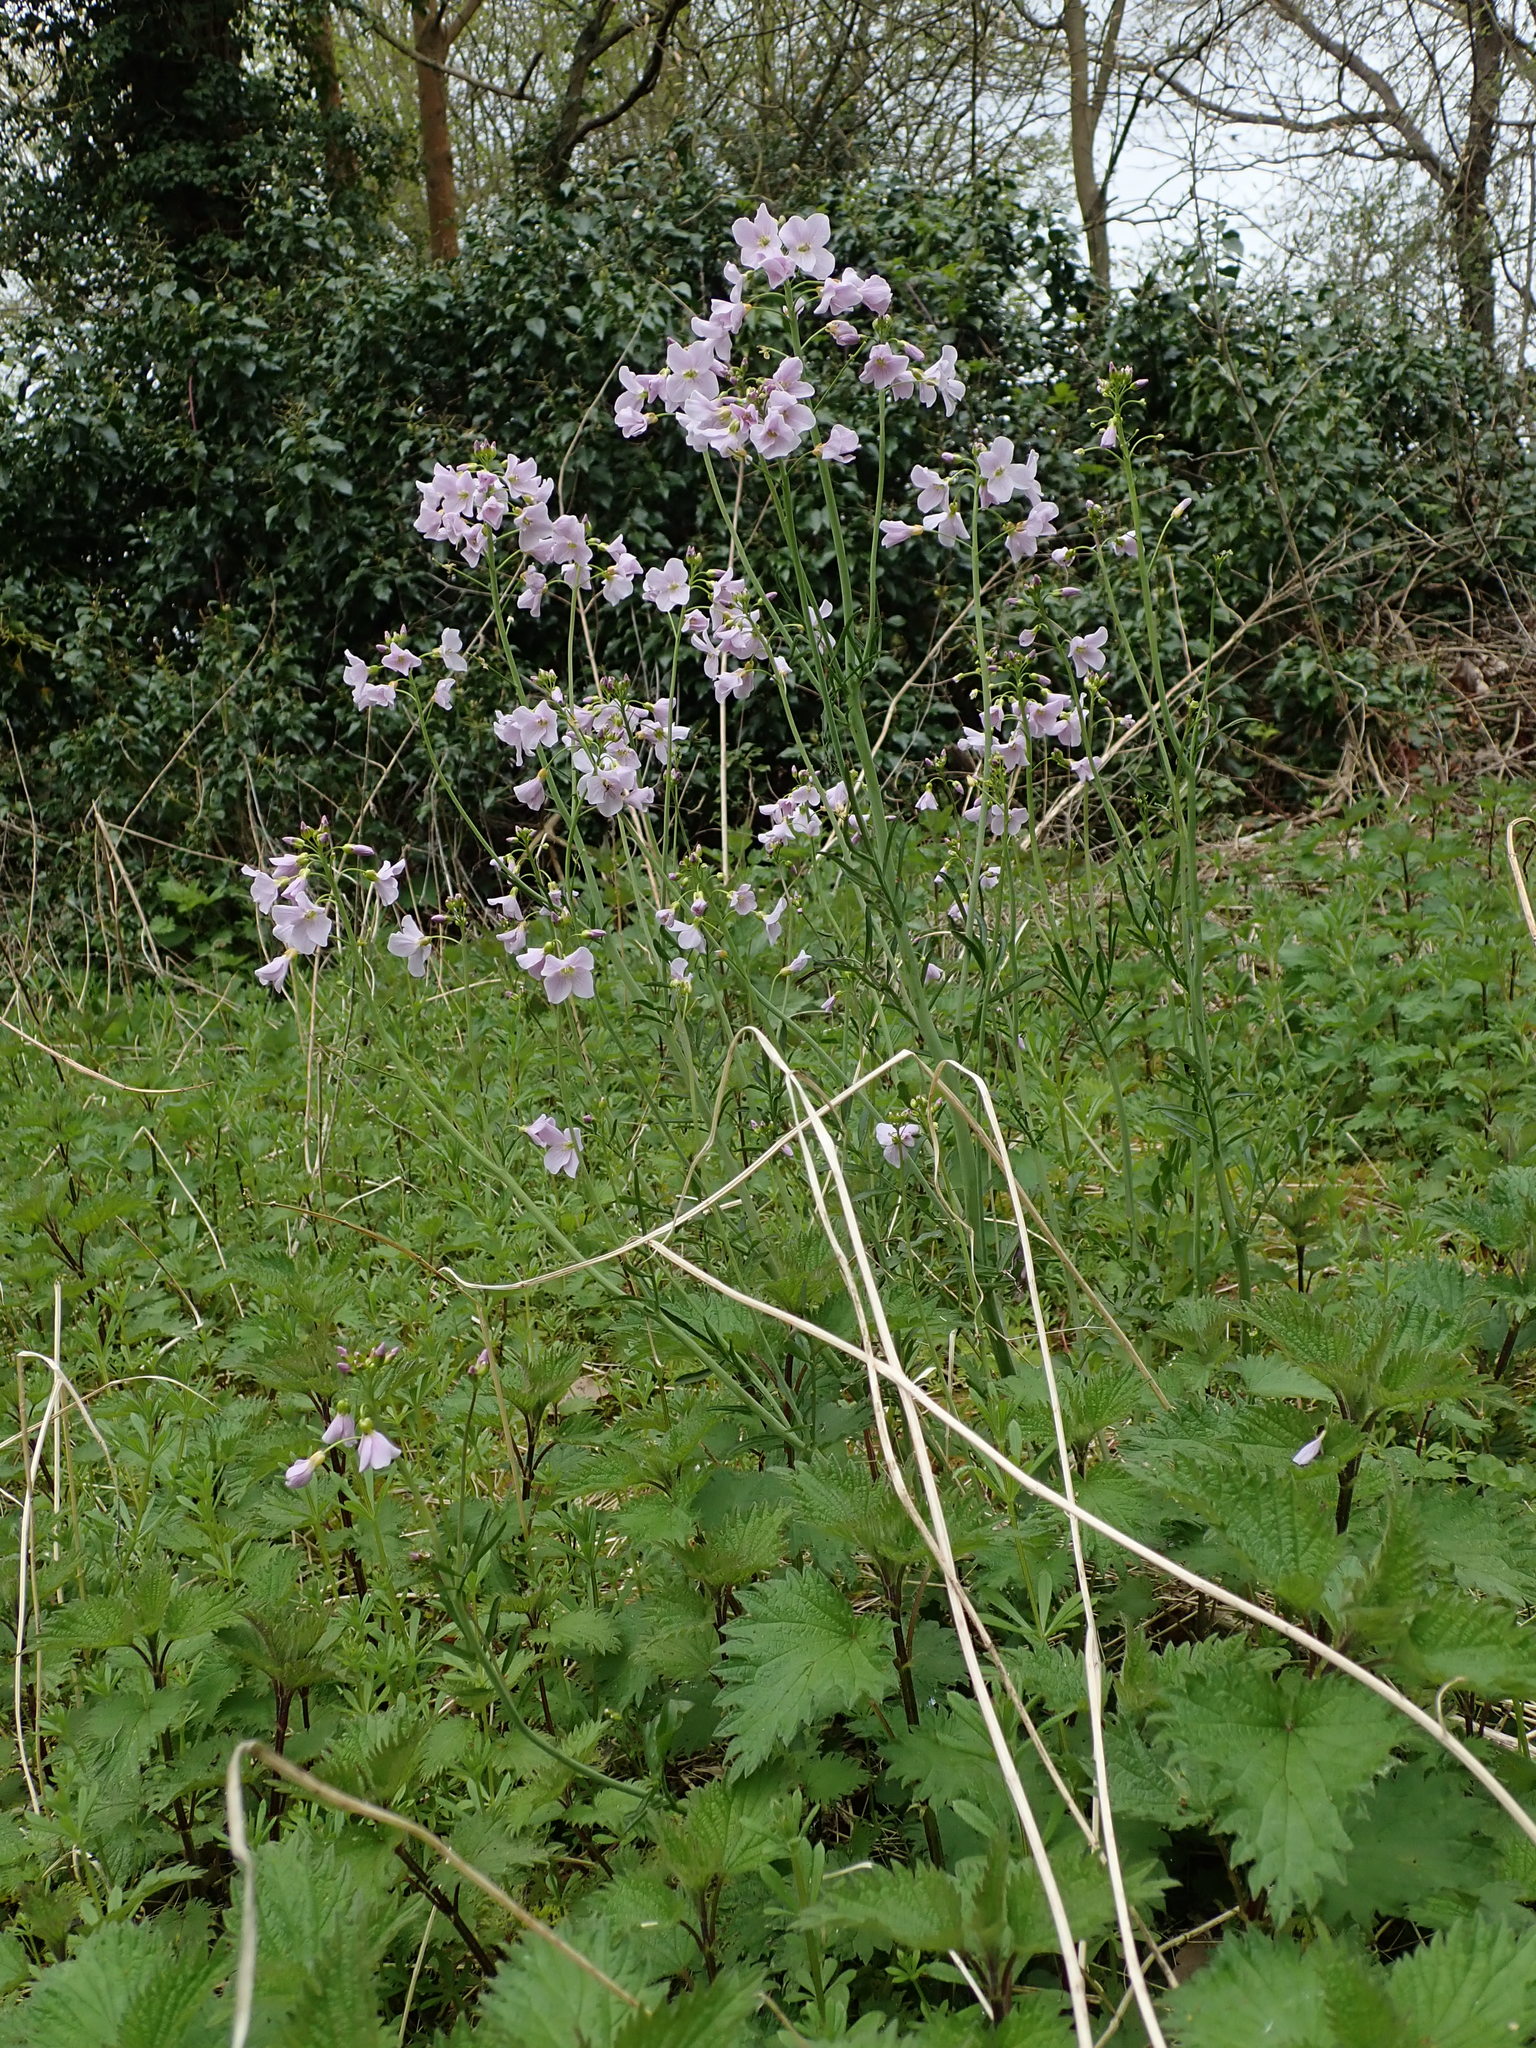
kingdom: Plantae
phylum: Tracheophyta
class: Magnoliopsida
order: Brassicales
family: Brassicaceae
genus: Cardamine
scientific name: Cardamine pratensis
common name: Cuckoo flower
